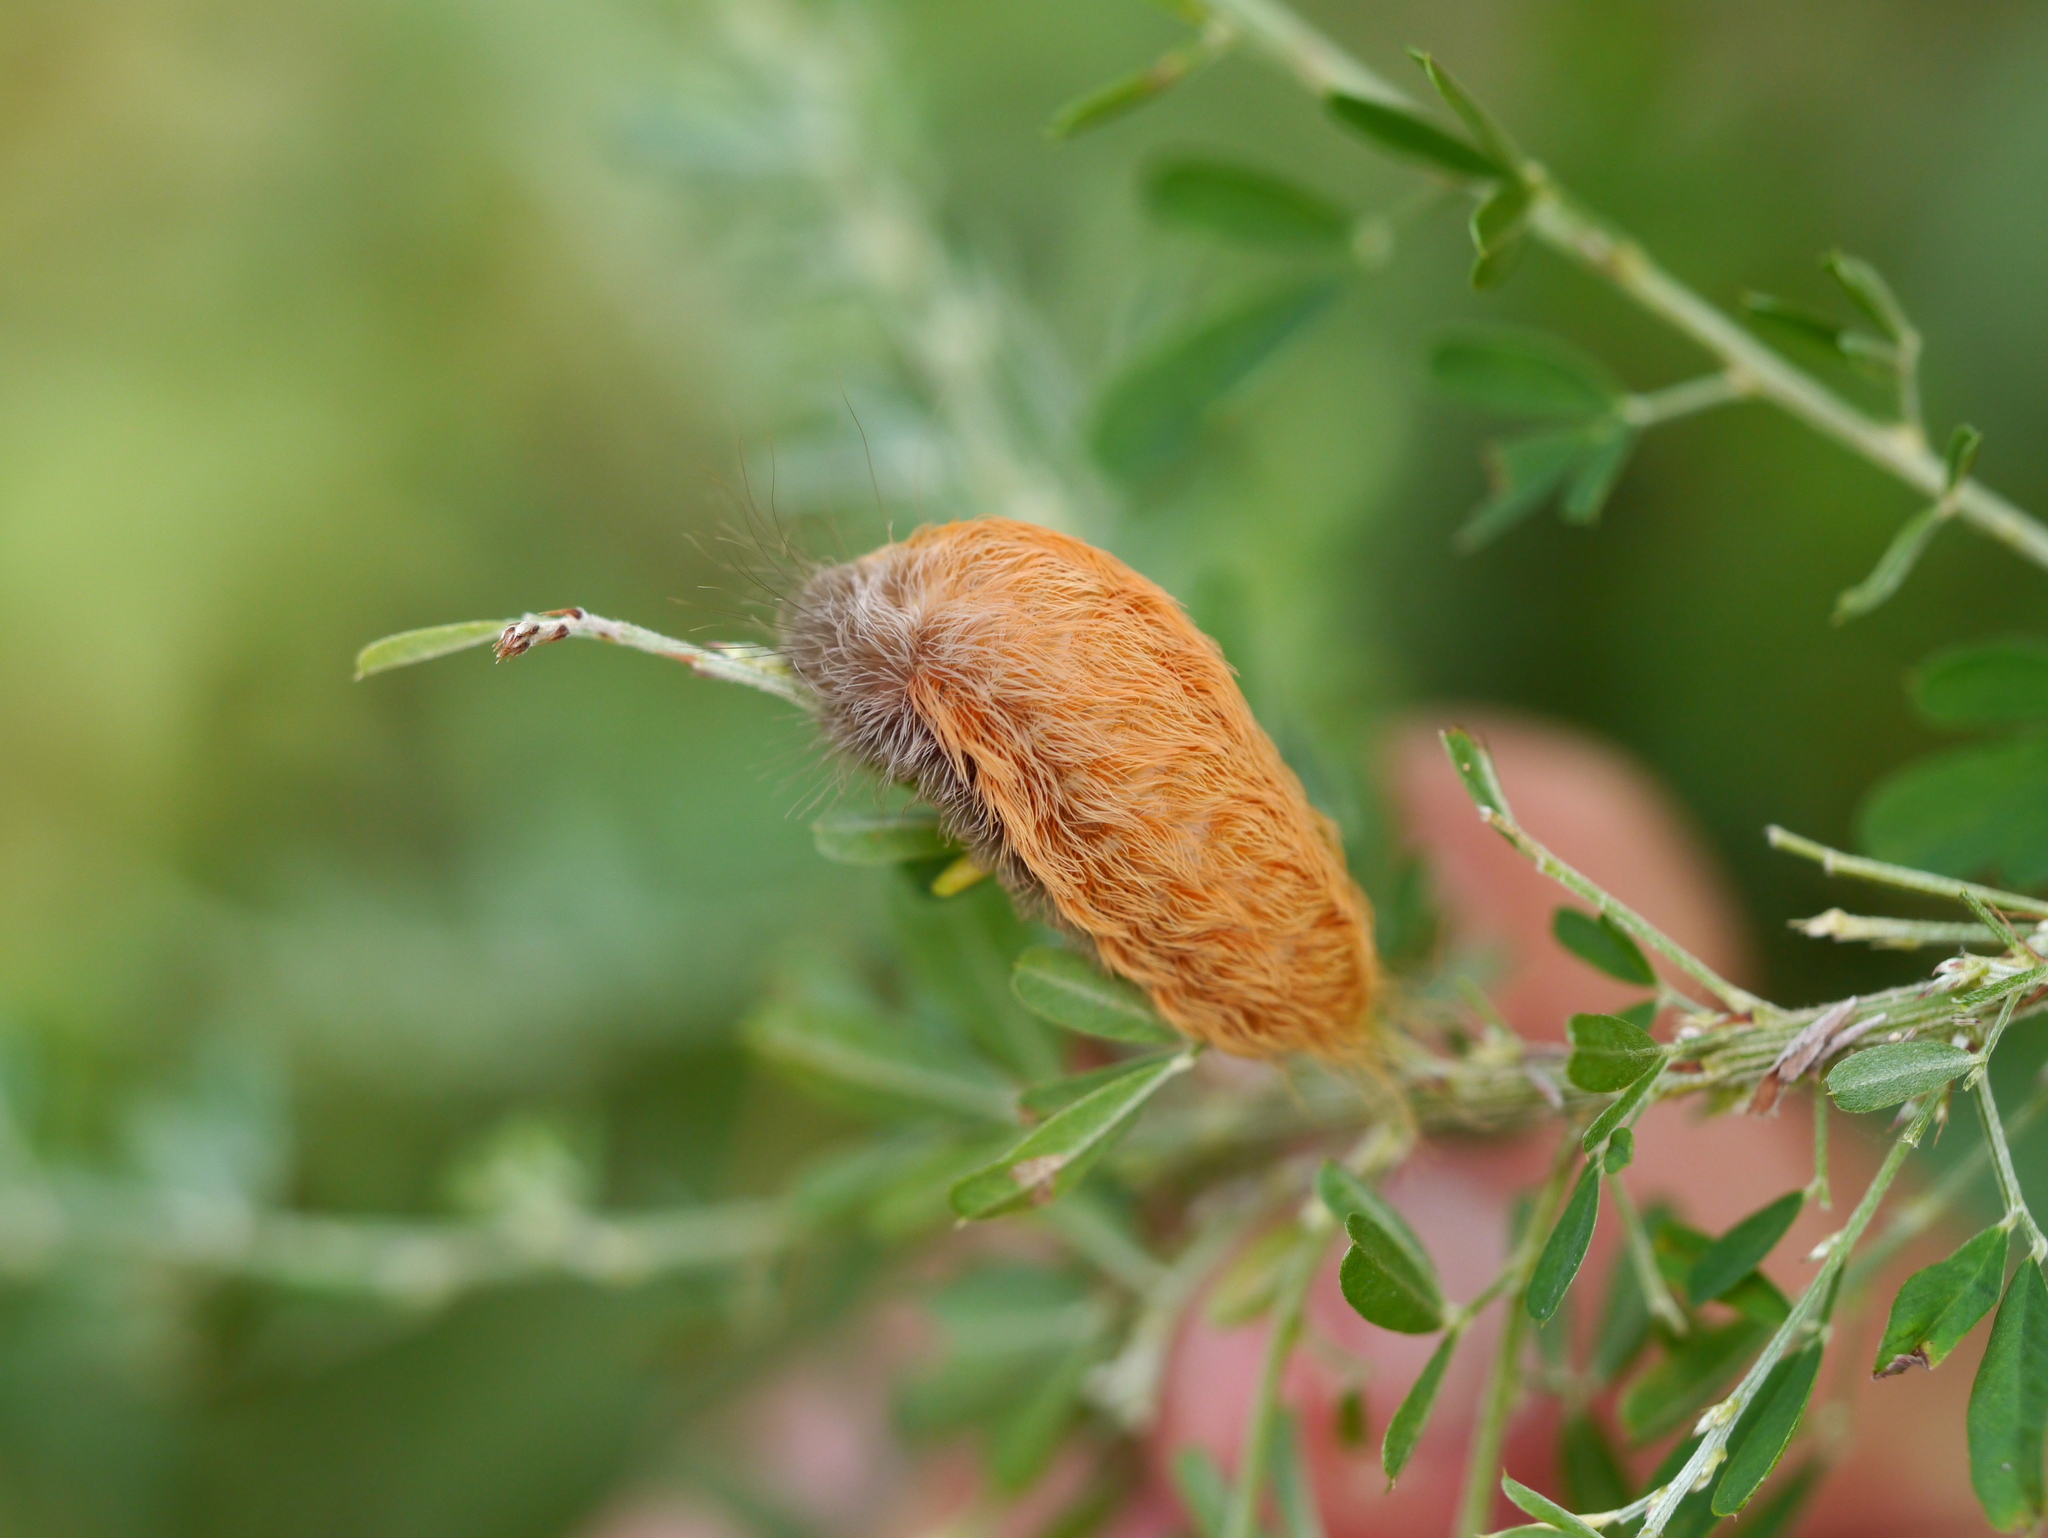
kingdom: Animalia
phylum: Arthropoda
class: Insecta
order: Lepidoptera
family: Megalopygidae
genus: Megalopyge
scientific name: Megalopyge crispata
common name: Black-waved flannel moth
